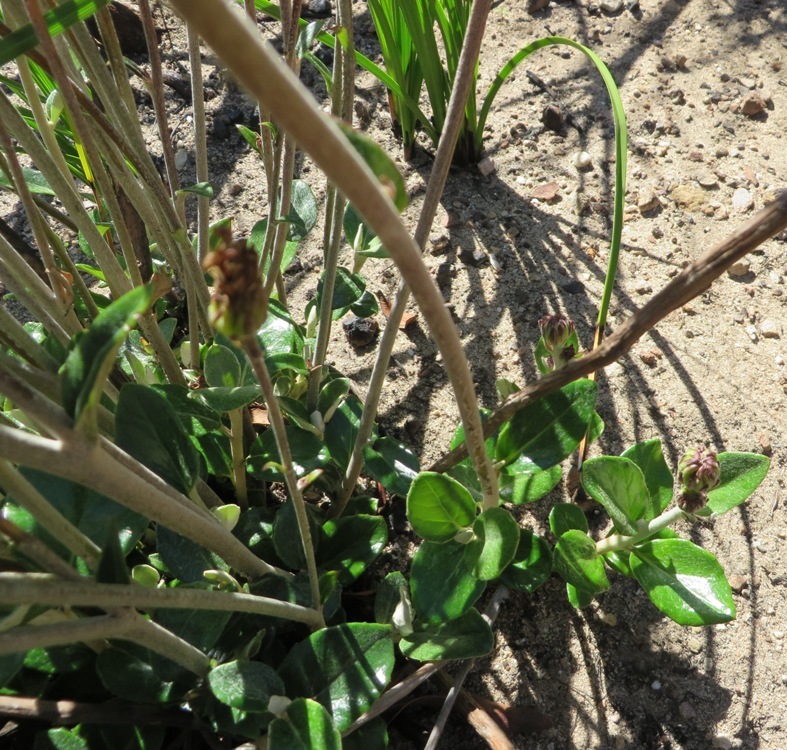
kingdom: Plantae
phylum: Tracheophyta
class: Magnoliopsida
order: Asterales
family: Asteraceae
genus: Capelio
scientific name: Capelio tabularis
